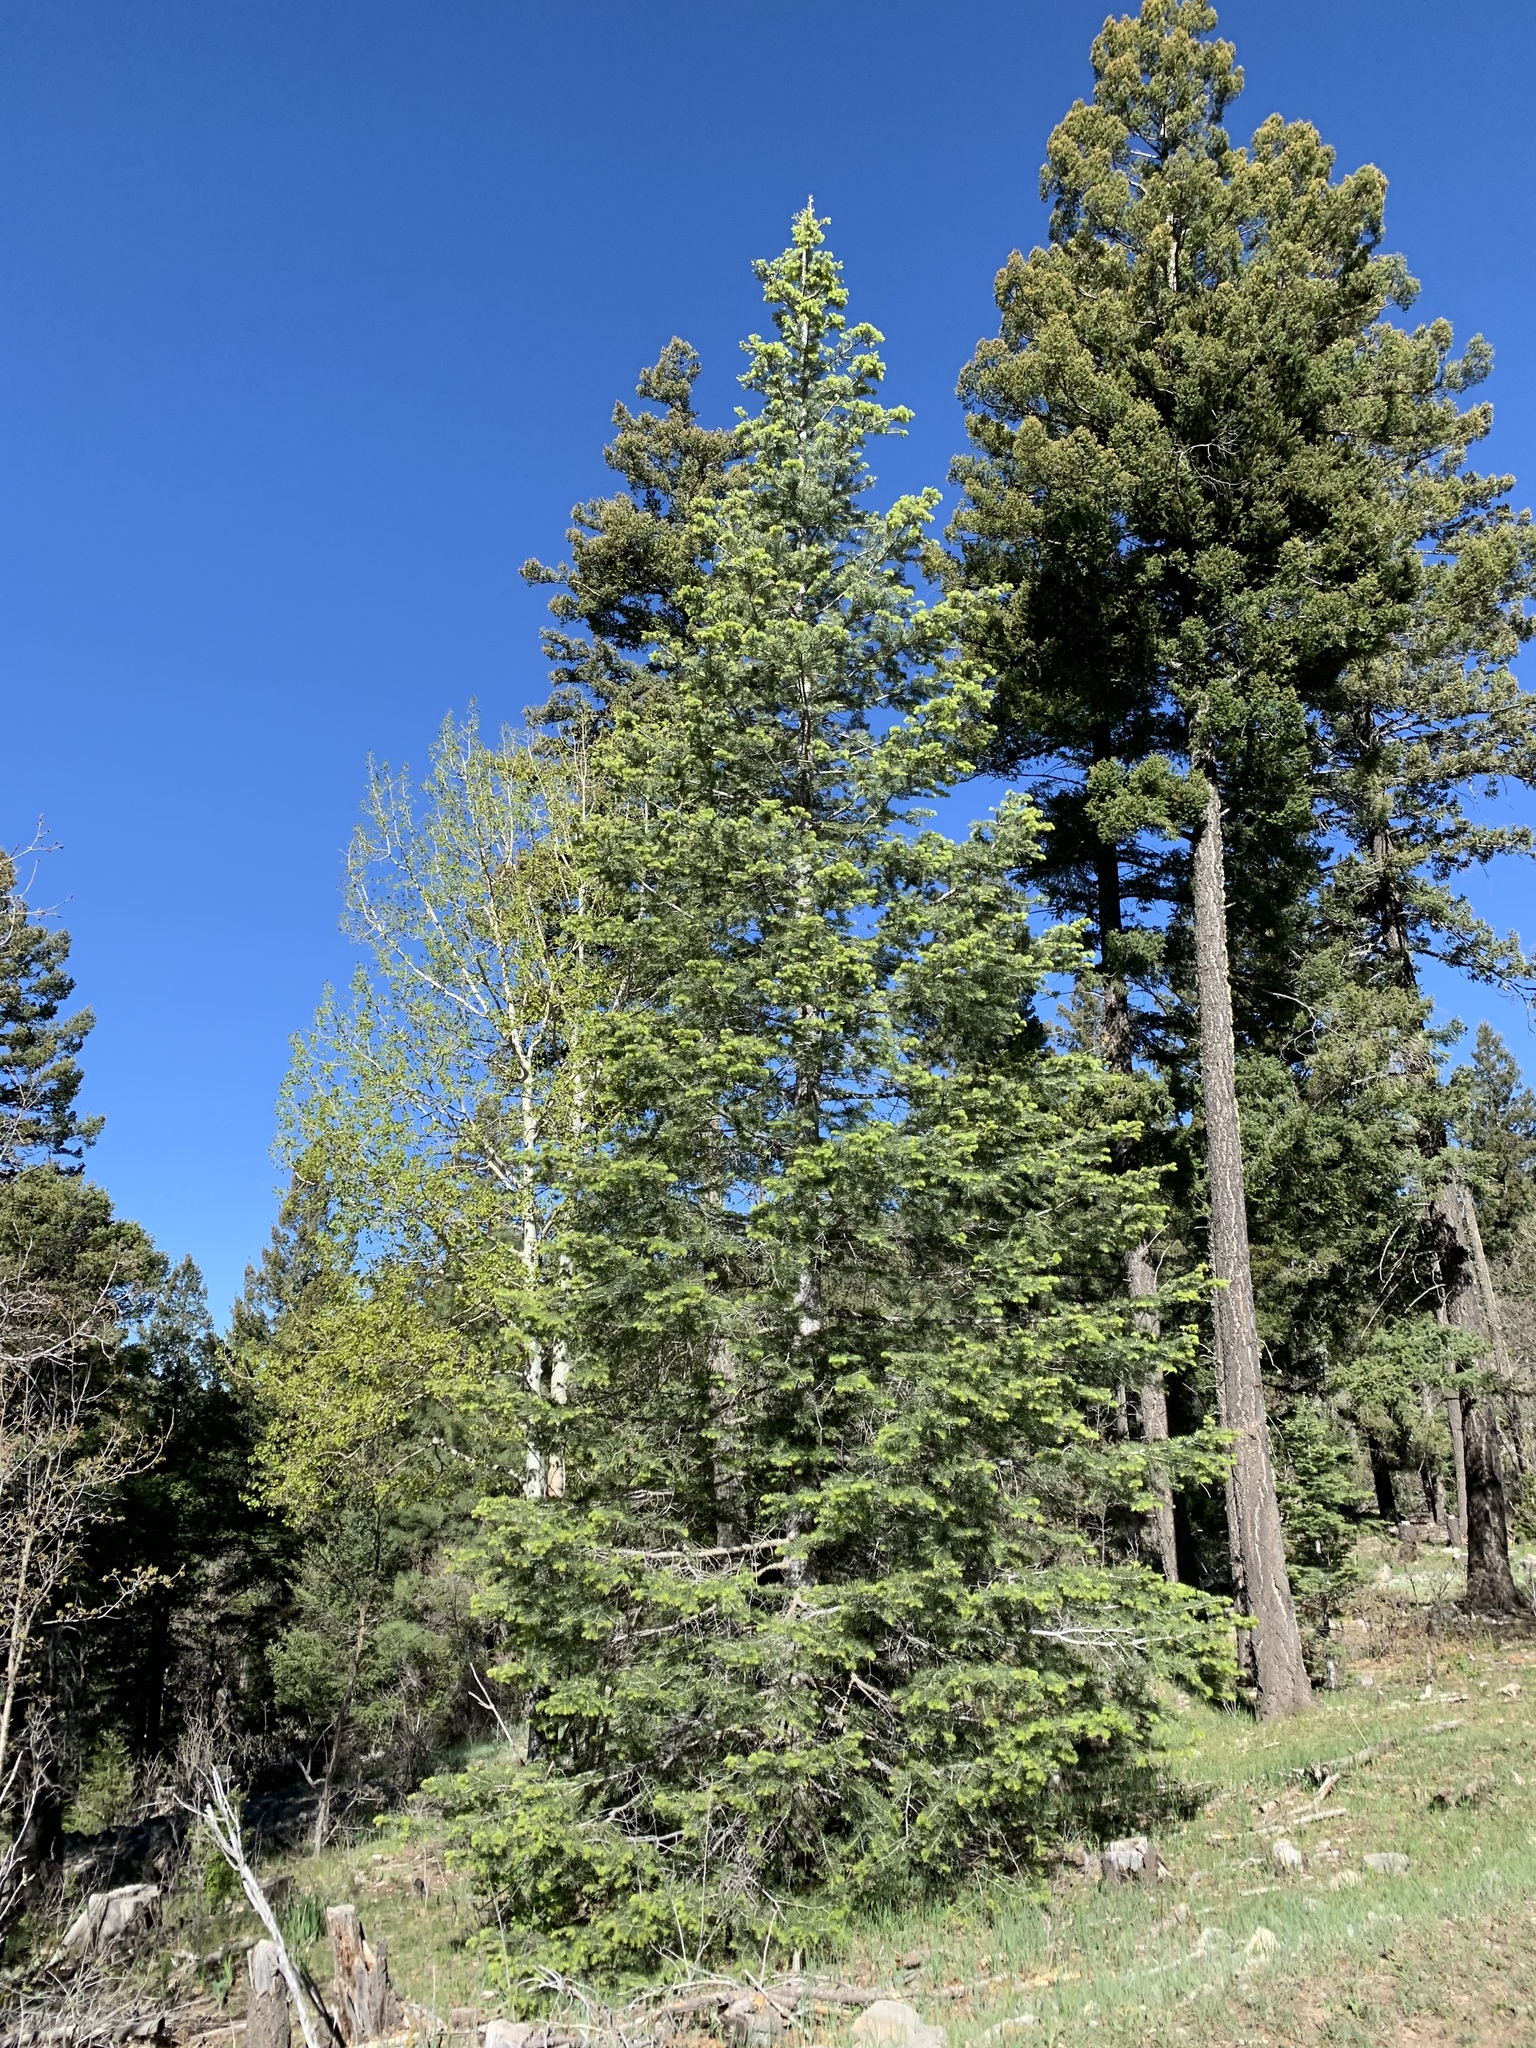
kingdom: Plantae
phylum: Tracheophyta
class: Pinopsida
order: Pinales
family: Pinaceae
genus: Abies
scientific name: Abies concolor
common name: Colorado fir
